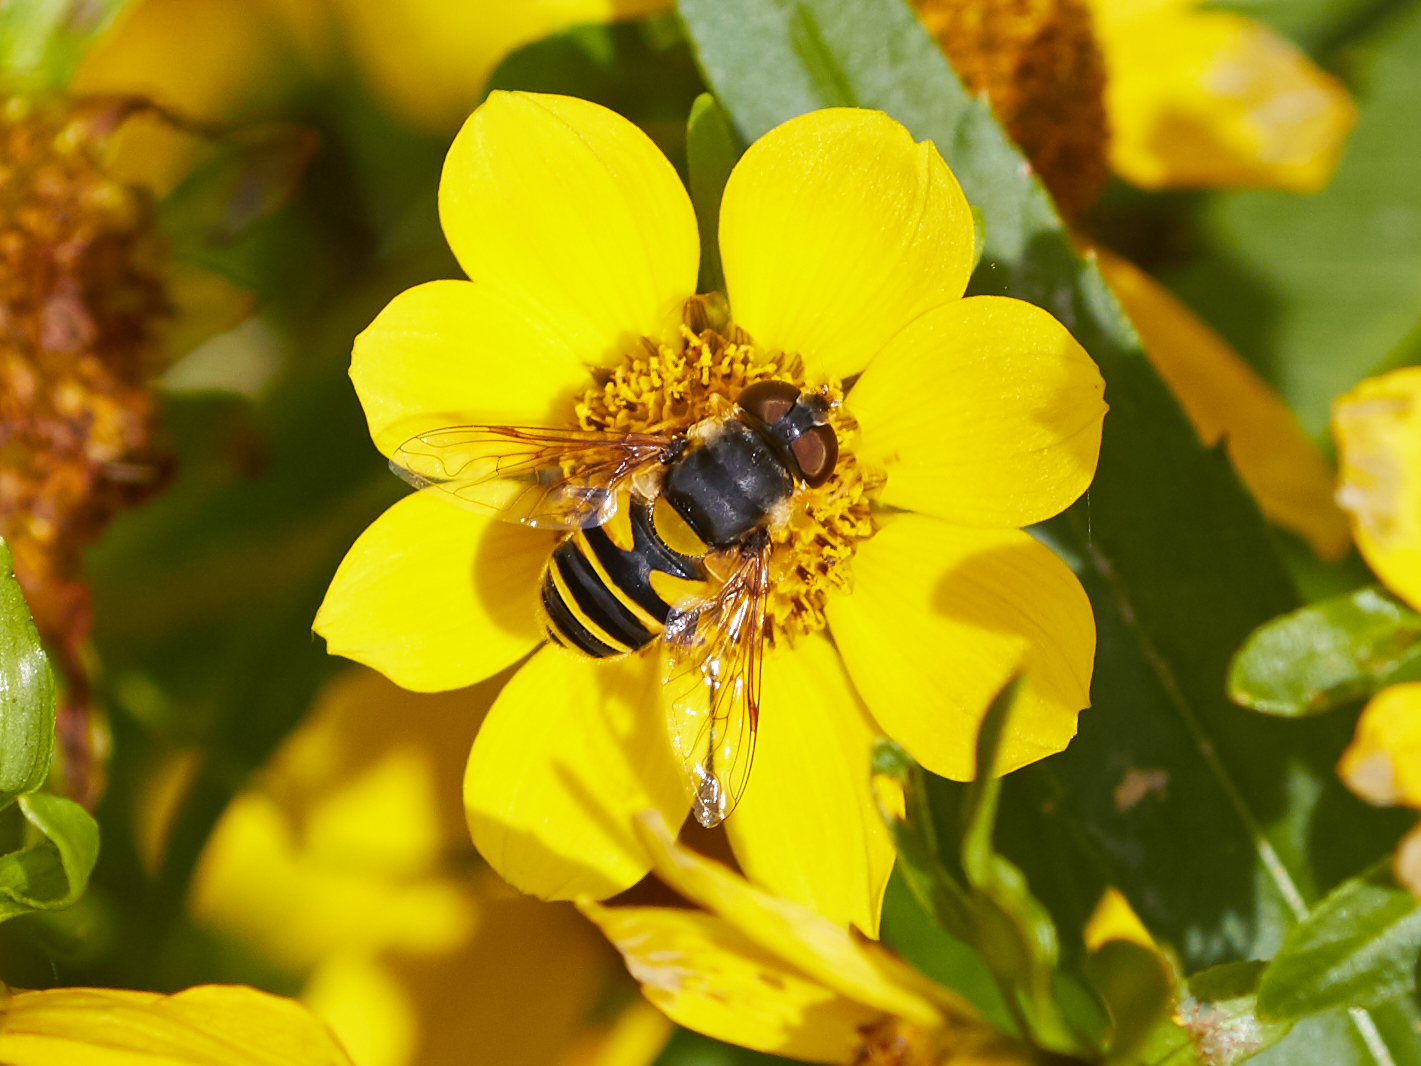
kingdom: Animalia
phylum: Arthropoda
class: Insecta
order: Diptera
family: Syrphidae
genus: Eristalis
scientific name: Eristalis transversa
